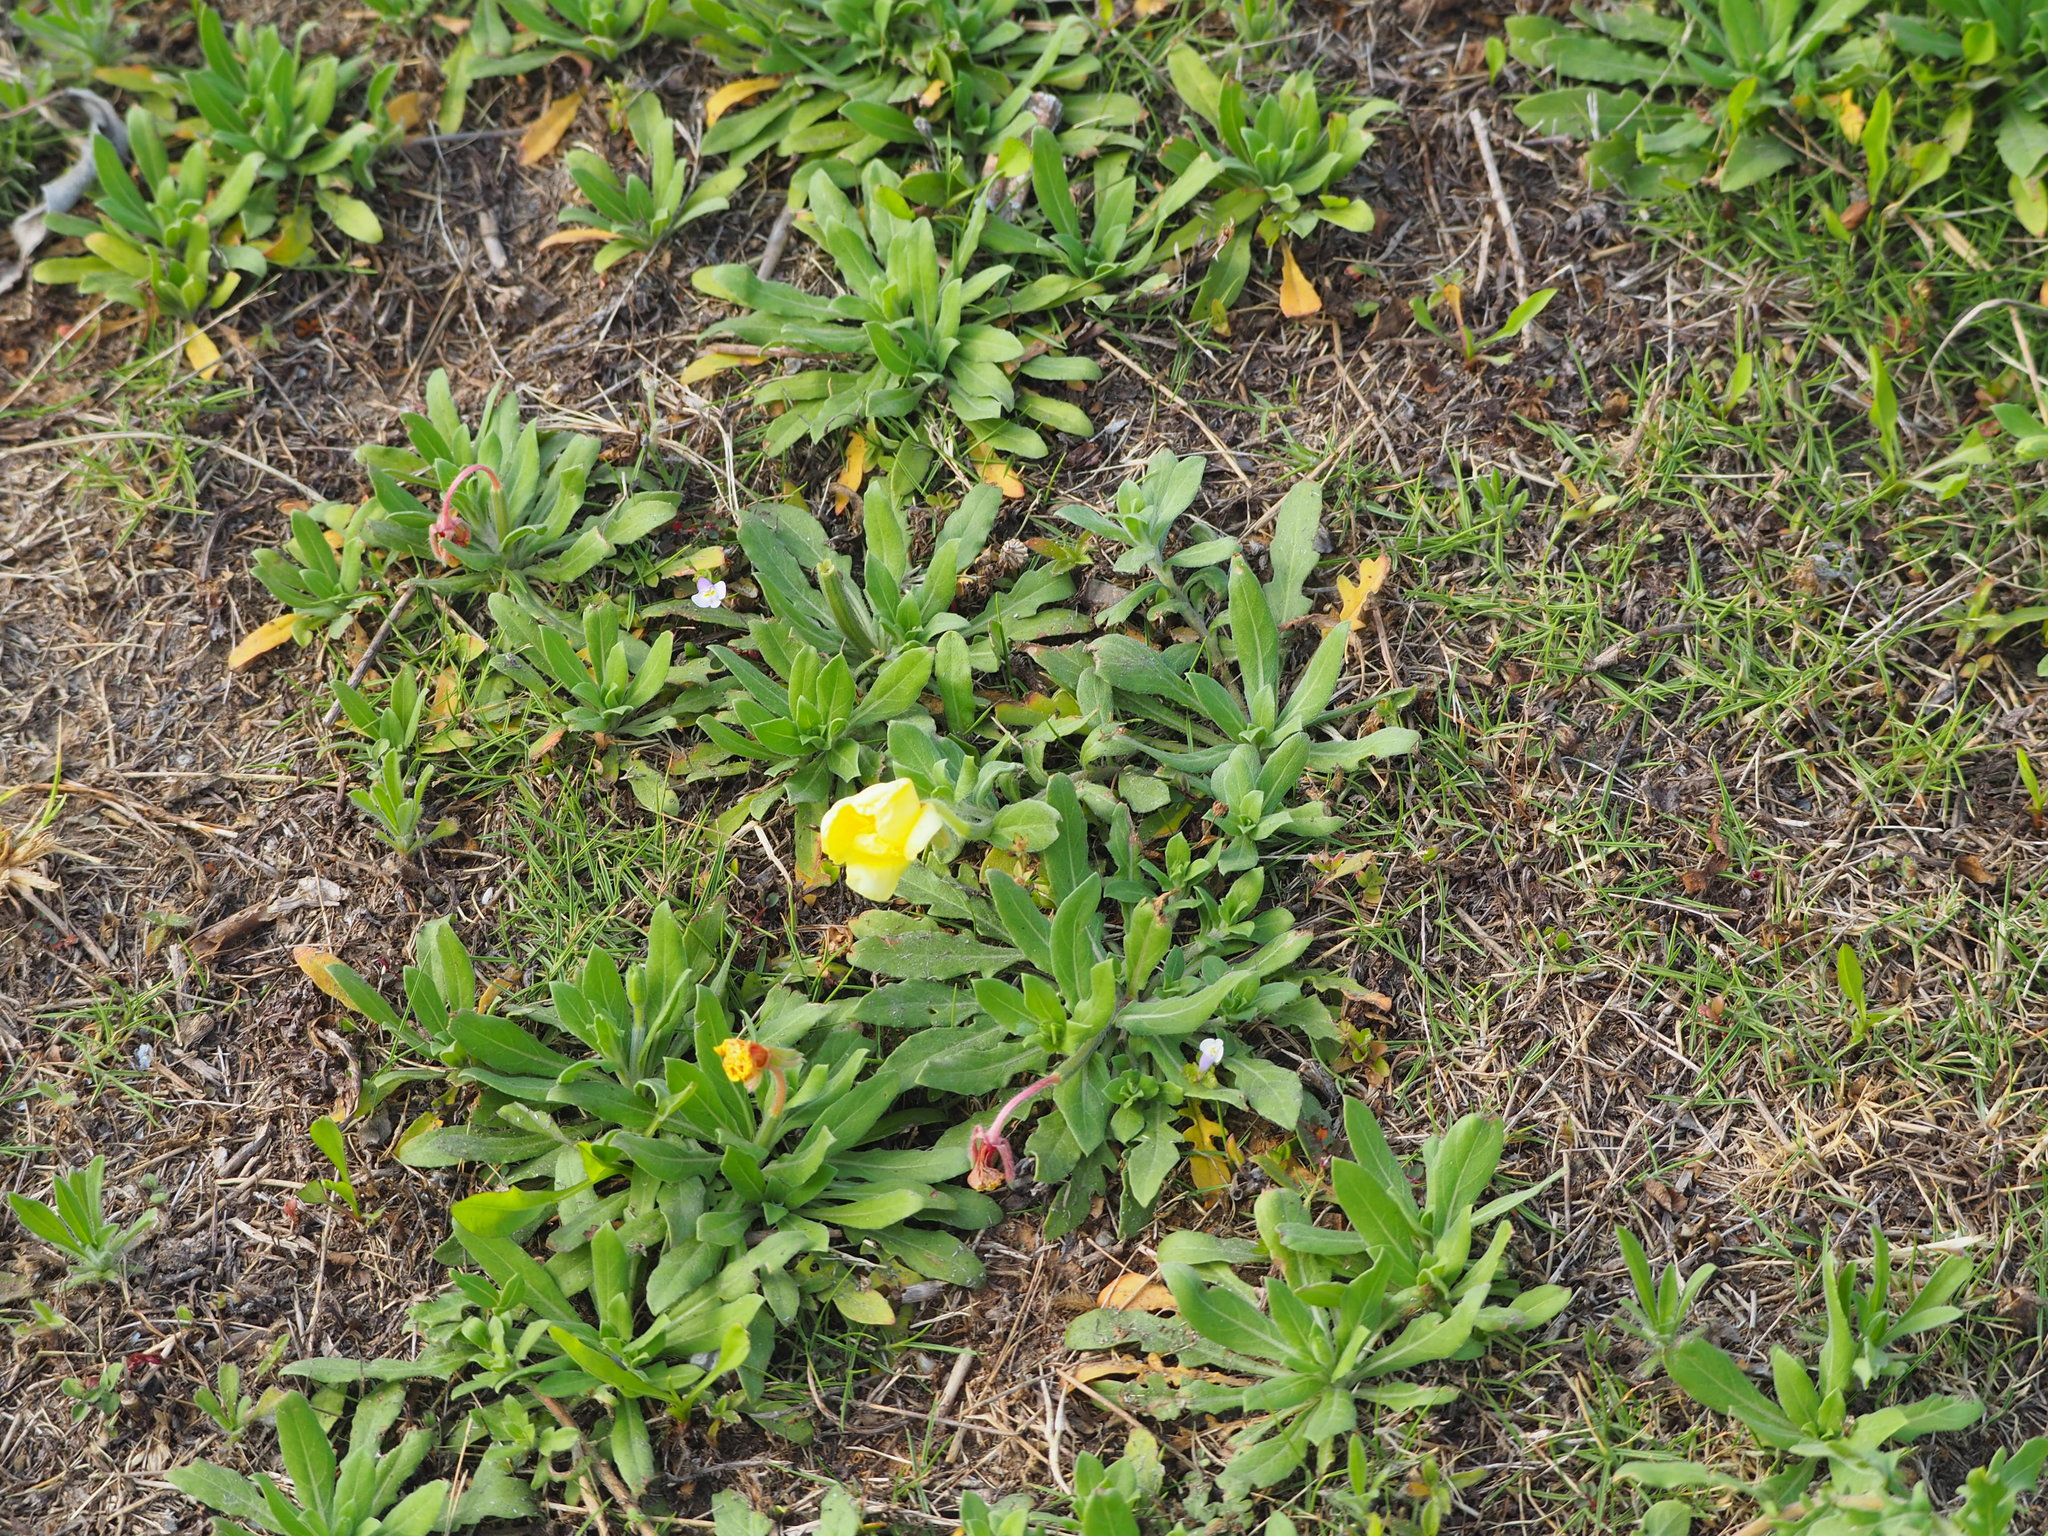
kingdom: Plantae
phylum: Tracheophyta
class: Magnoliopsida
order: Myrtales
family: Onagraceae
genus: Oenothera
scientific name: Oenothera laciniata
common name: Cut-leaved evening-primrose
